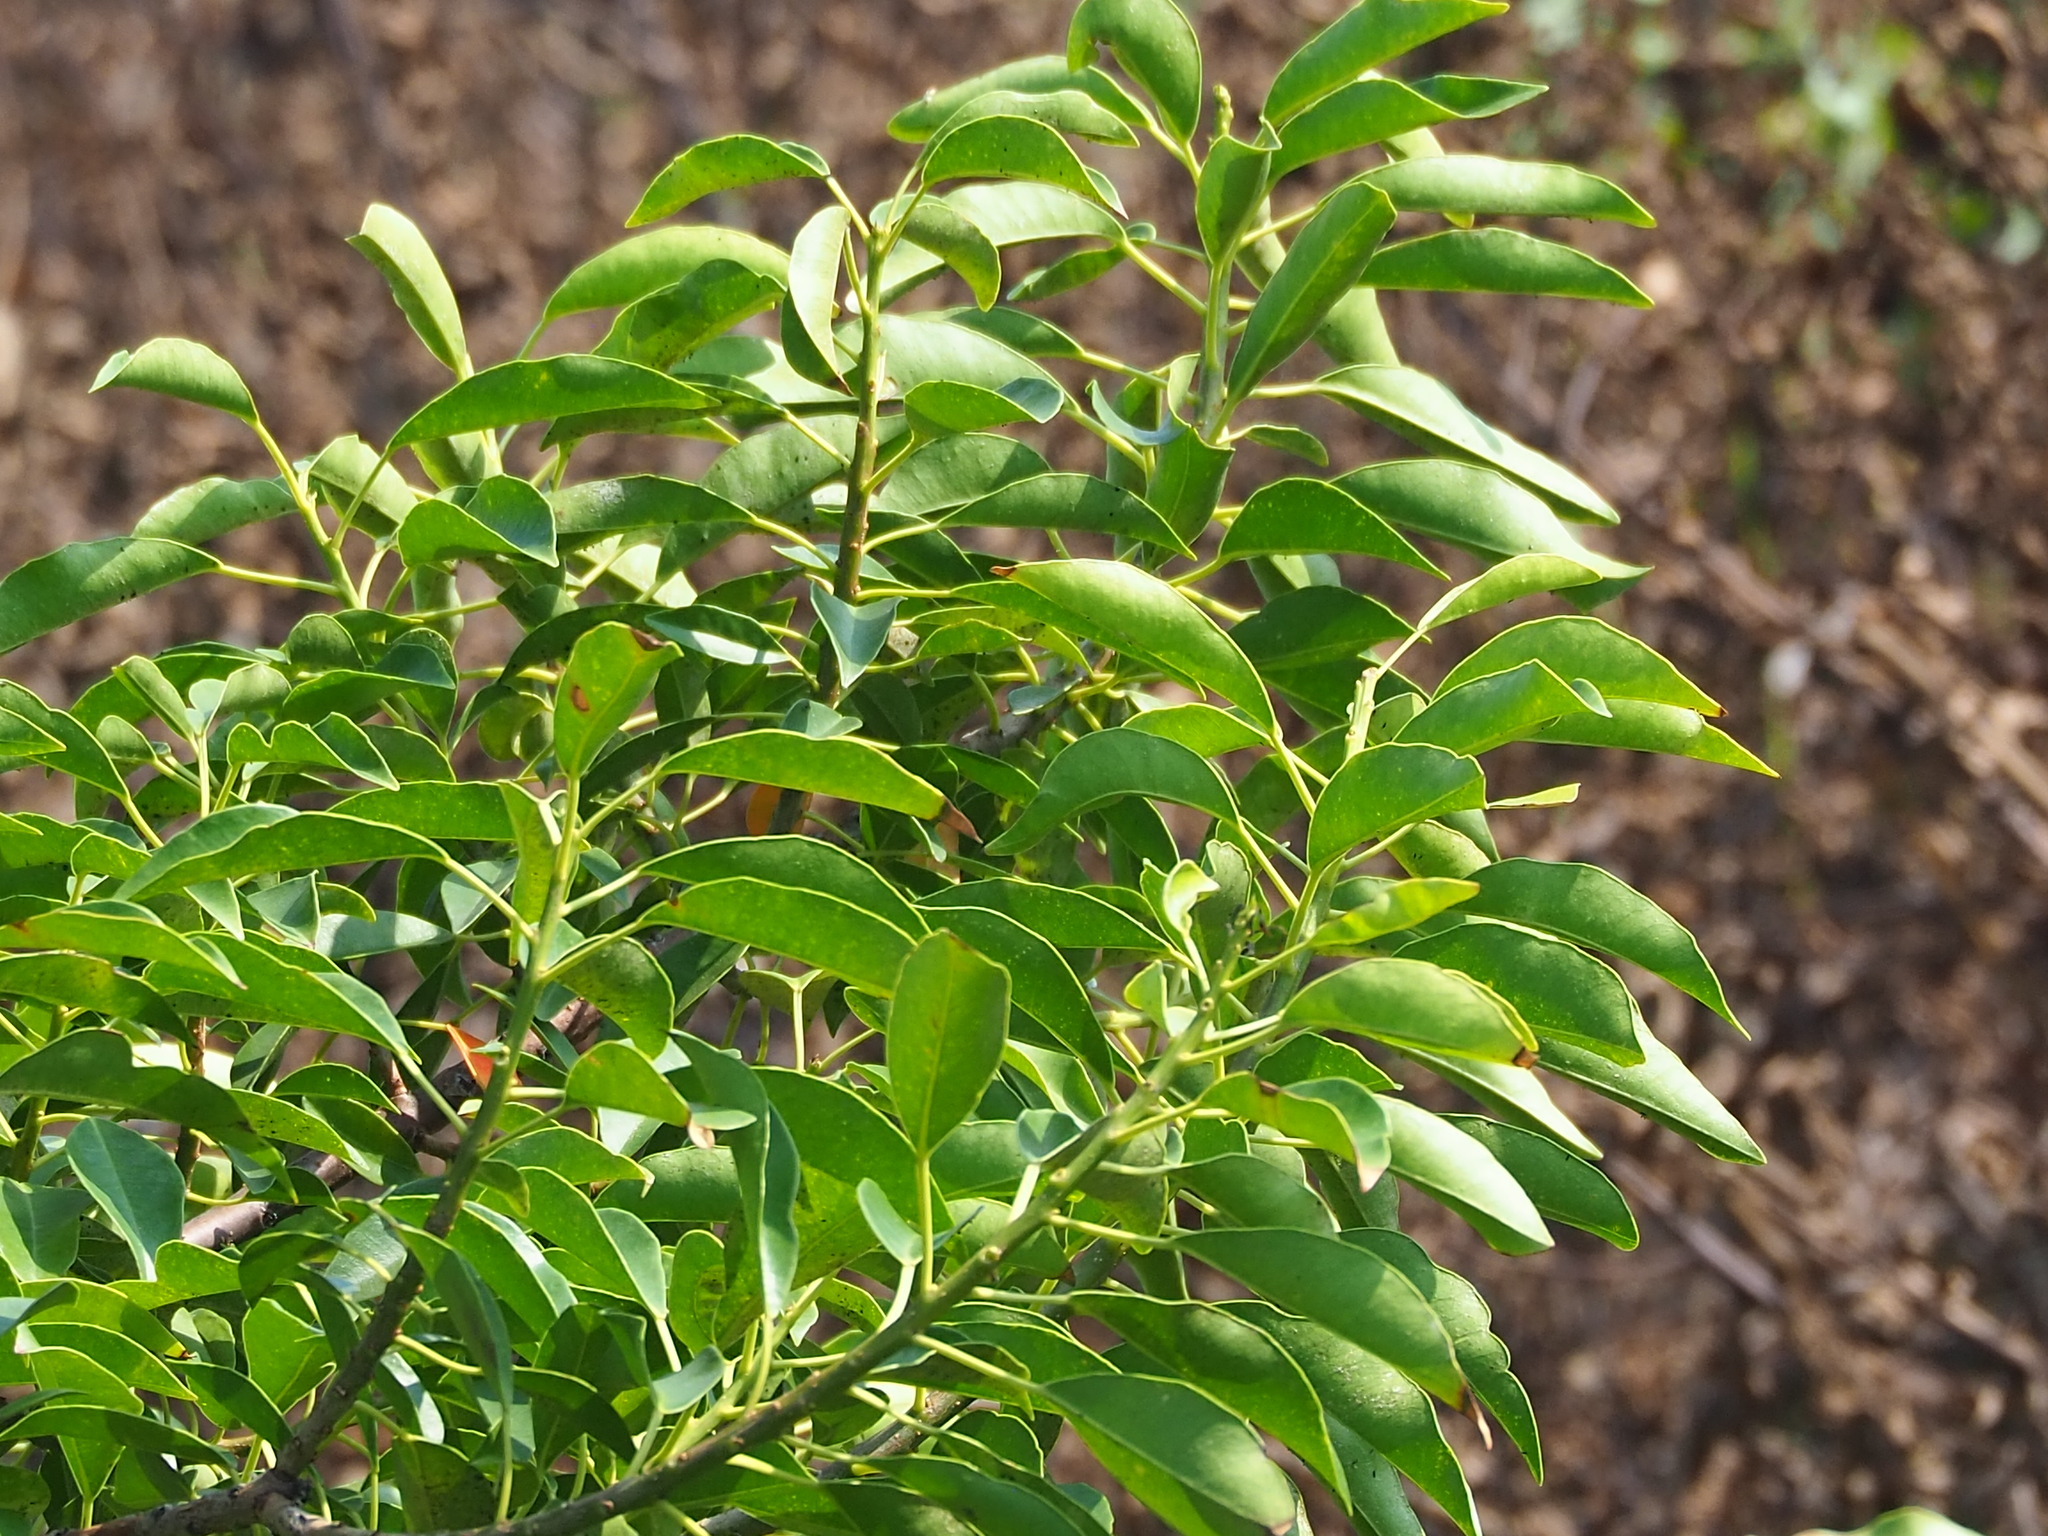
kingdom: Plantae
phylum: Tracheophyta
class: Magnoliopsida
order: Malpighiales
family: Euphorbiaceae
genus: Excoecaria
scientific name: Excoecaria agallocha
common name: River poisontree
